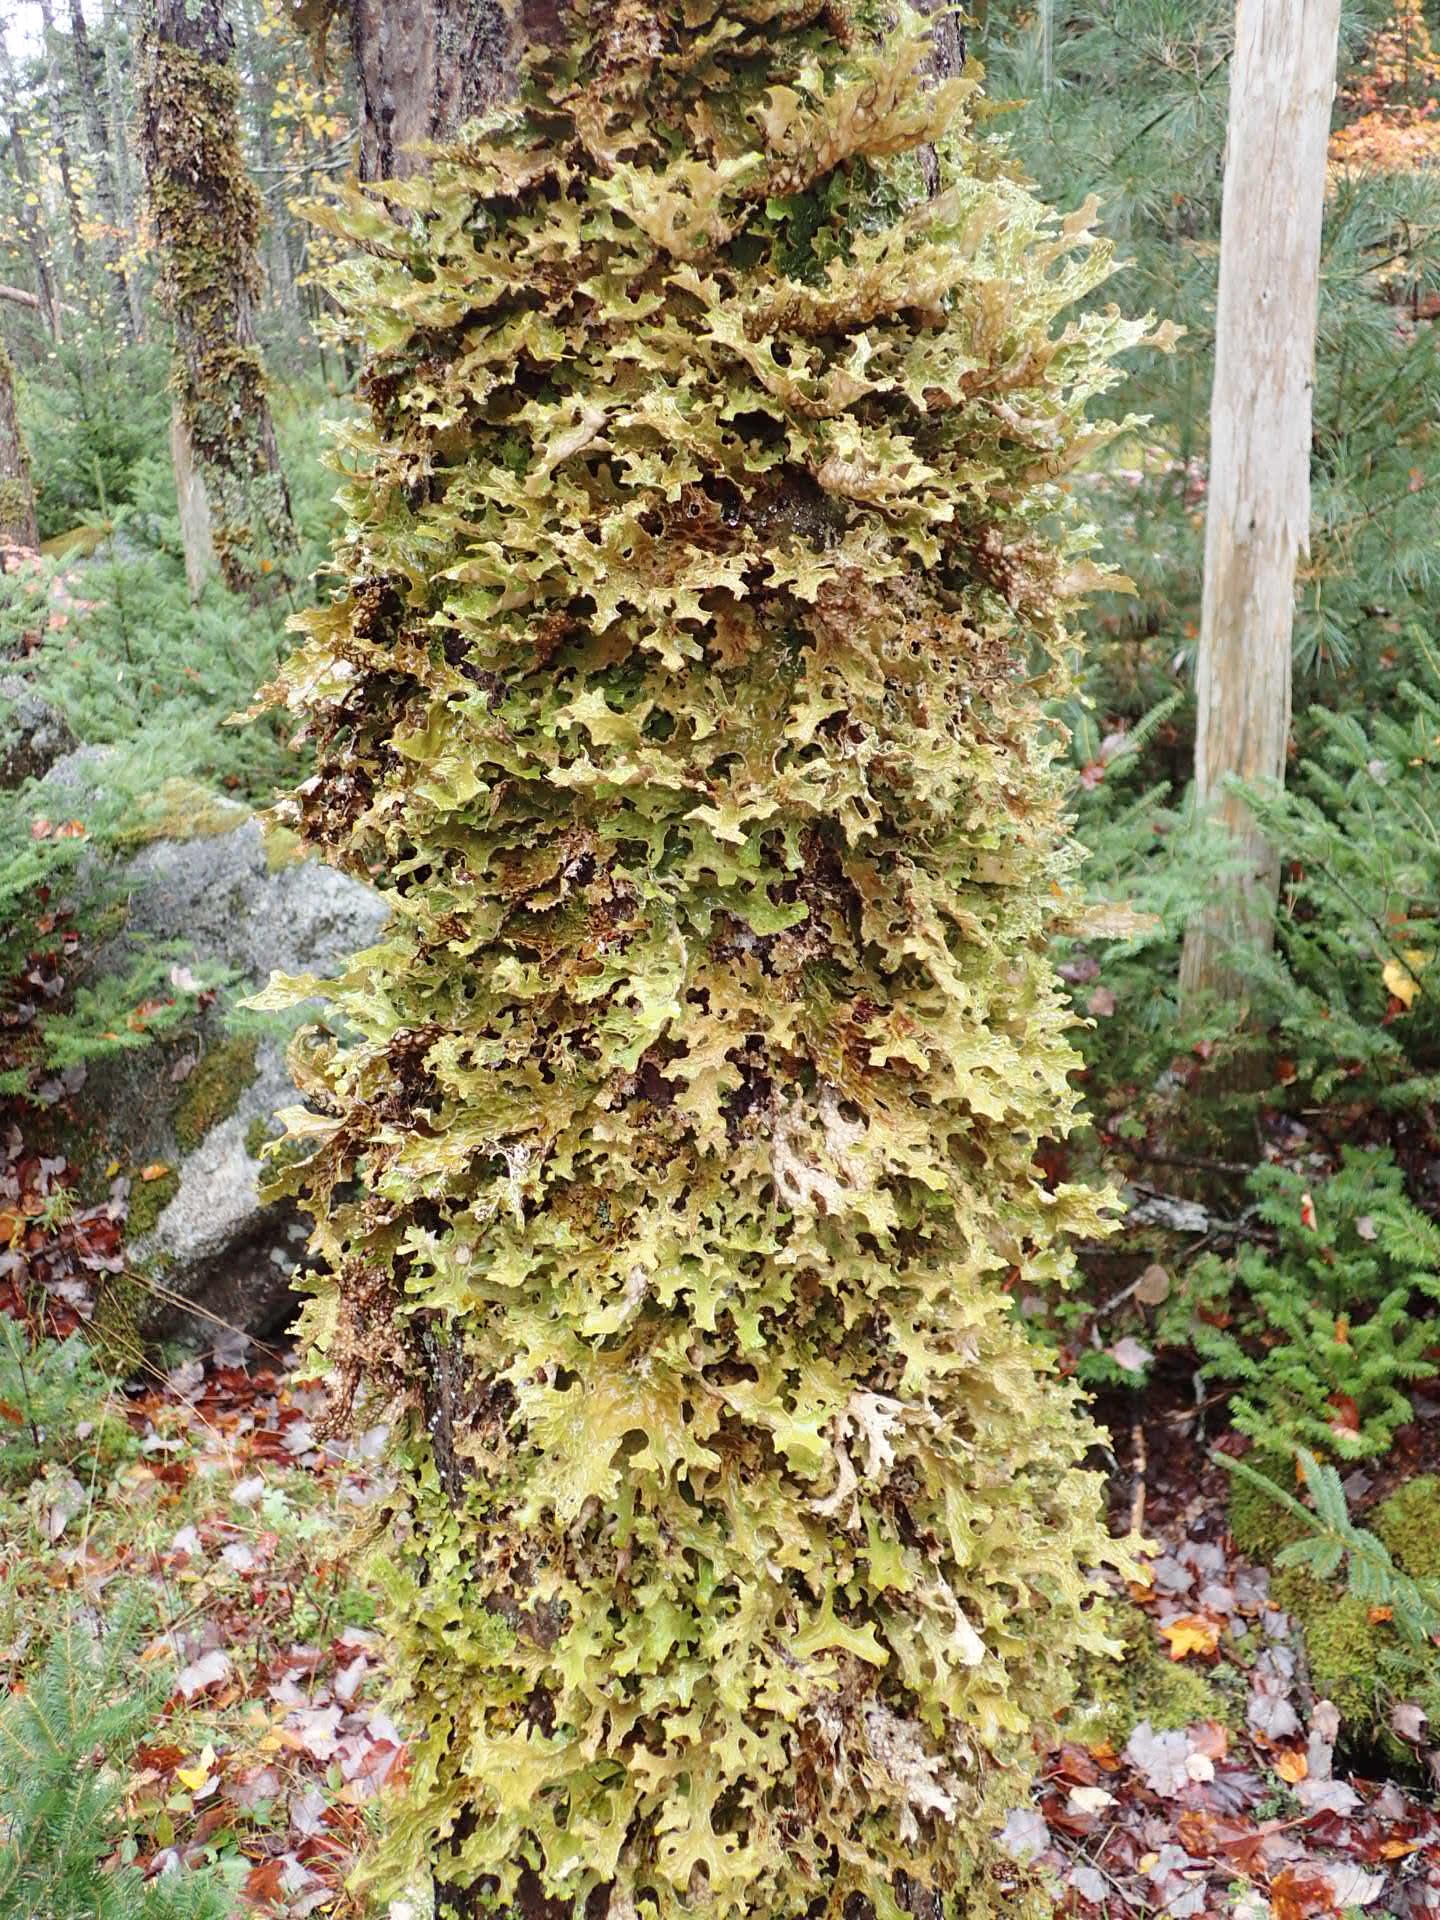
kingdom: Fungi
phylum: Ascomycota
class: Lecanoromycetes
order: Peltigerales
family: Lobariaceae
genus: Lobaria
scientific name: Lobaria pulmonaria
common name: Lungwort
